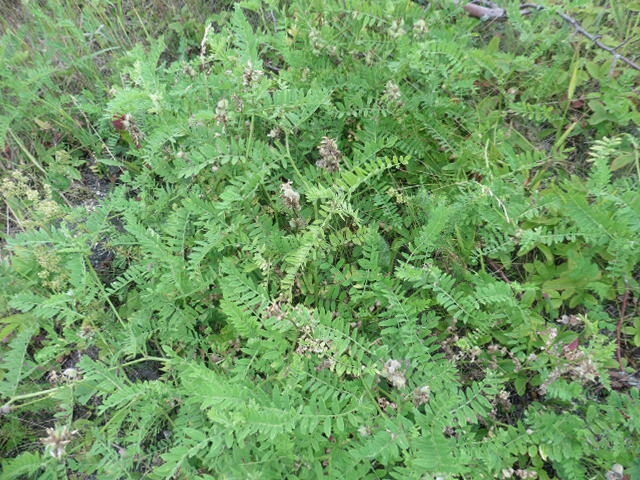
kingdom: Plantae
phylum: Tracheophyta
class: Magnoliopsida
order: Fabales
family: Fabaceae
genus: Astragalus
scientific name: Astragalus cicer
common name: Chick-pea milk-vetch
